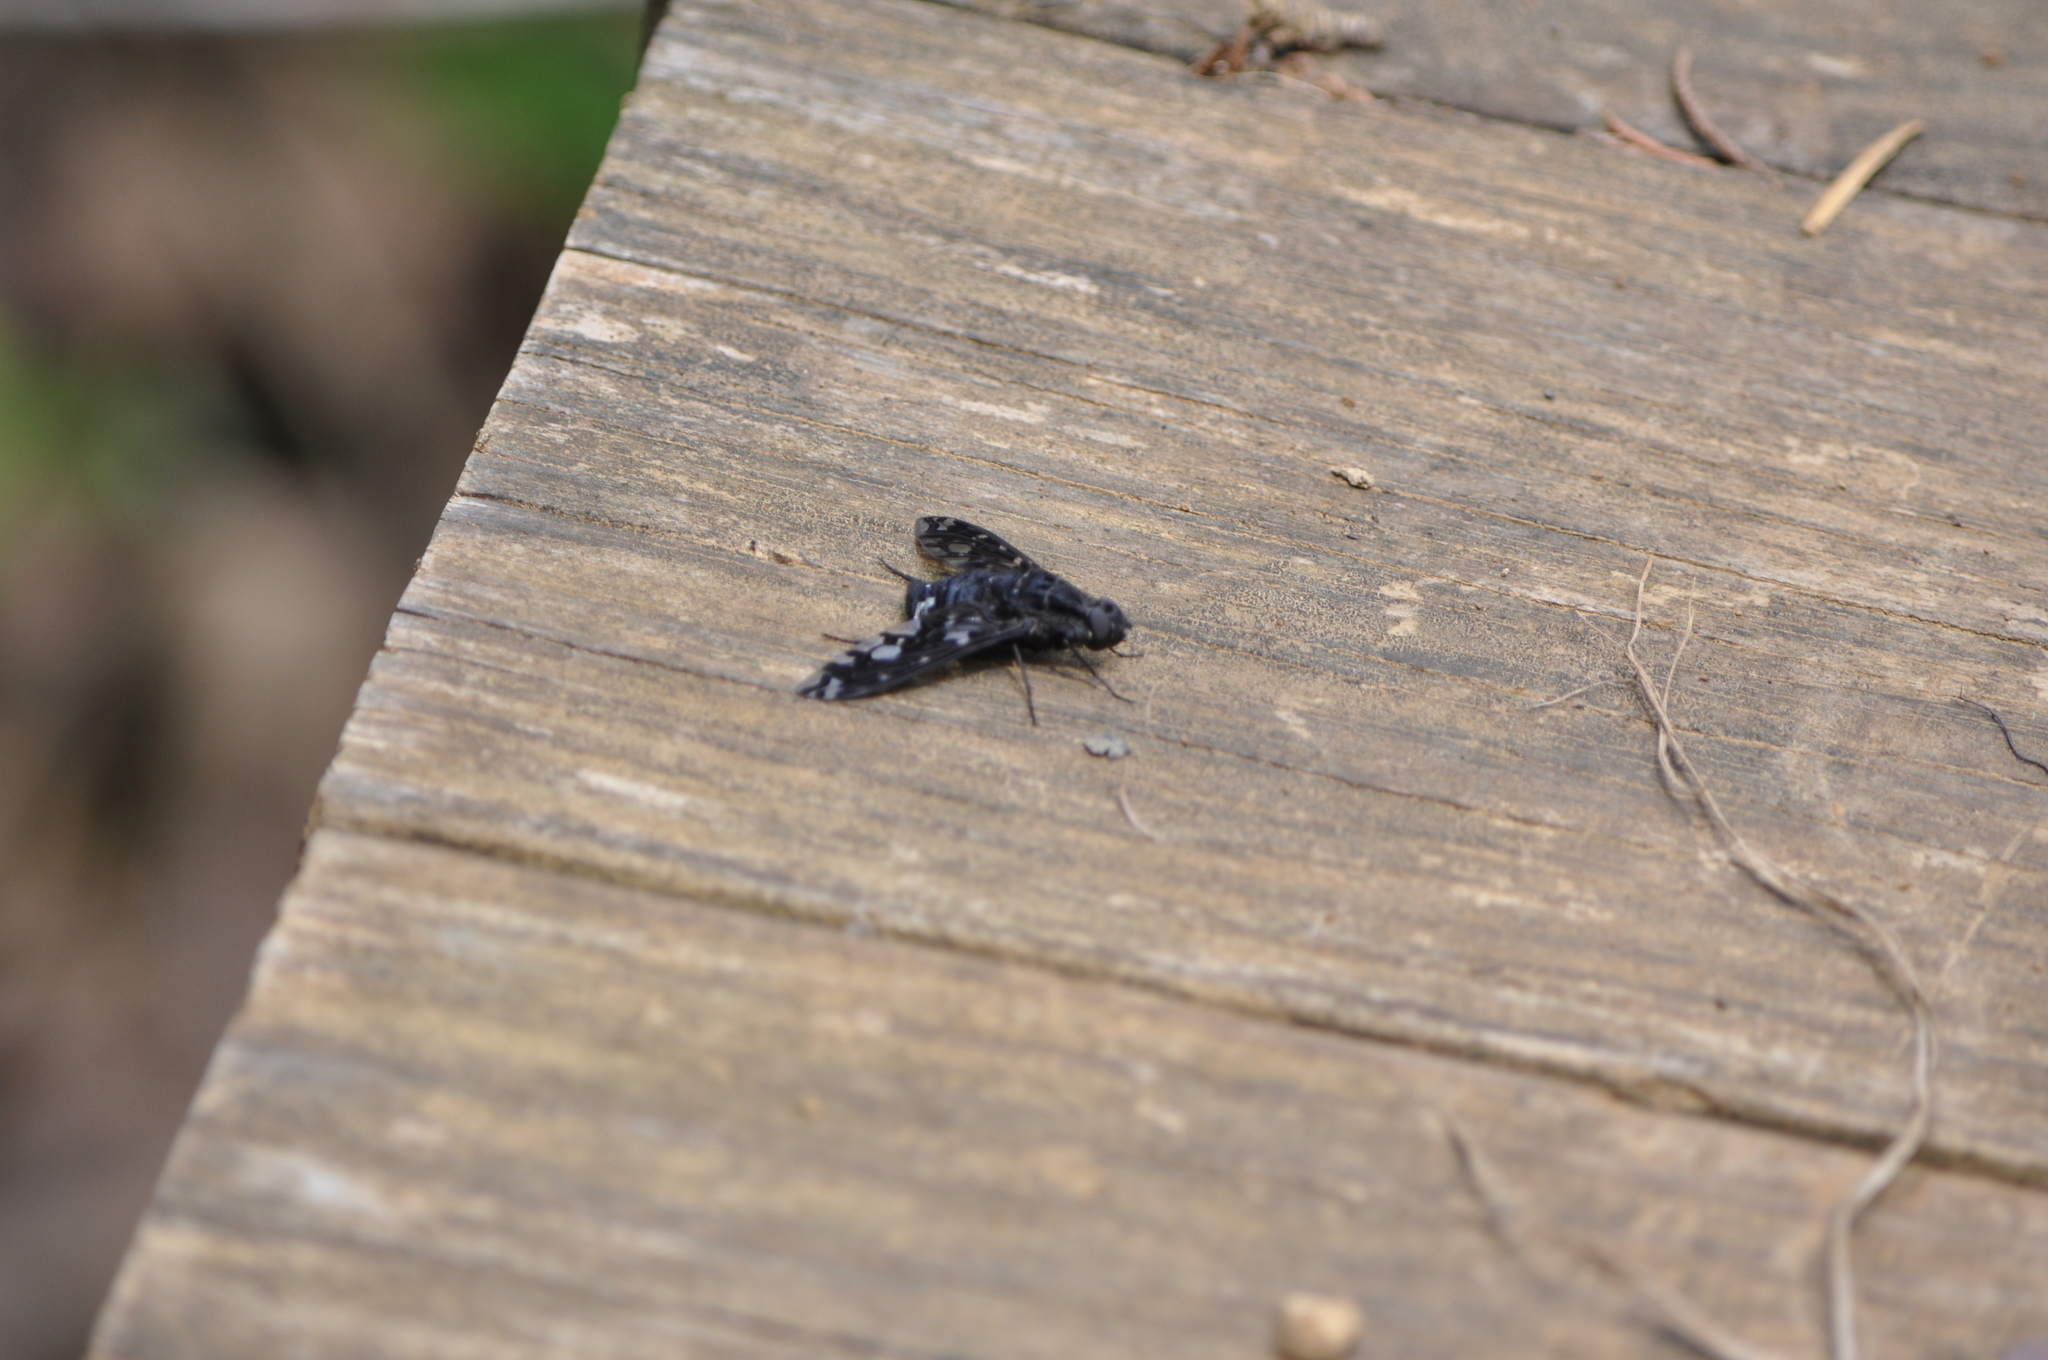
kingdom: Animalia
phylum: Arthropoda
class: Insecta
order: Diptera
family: Bombyliidae
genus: Xenox
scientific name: Xenox tigrinus
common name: Tiger bee fly
